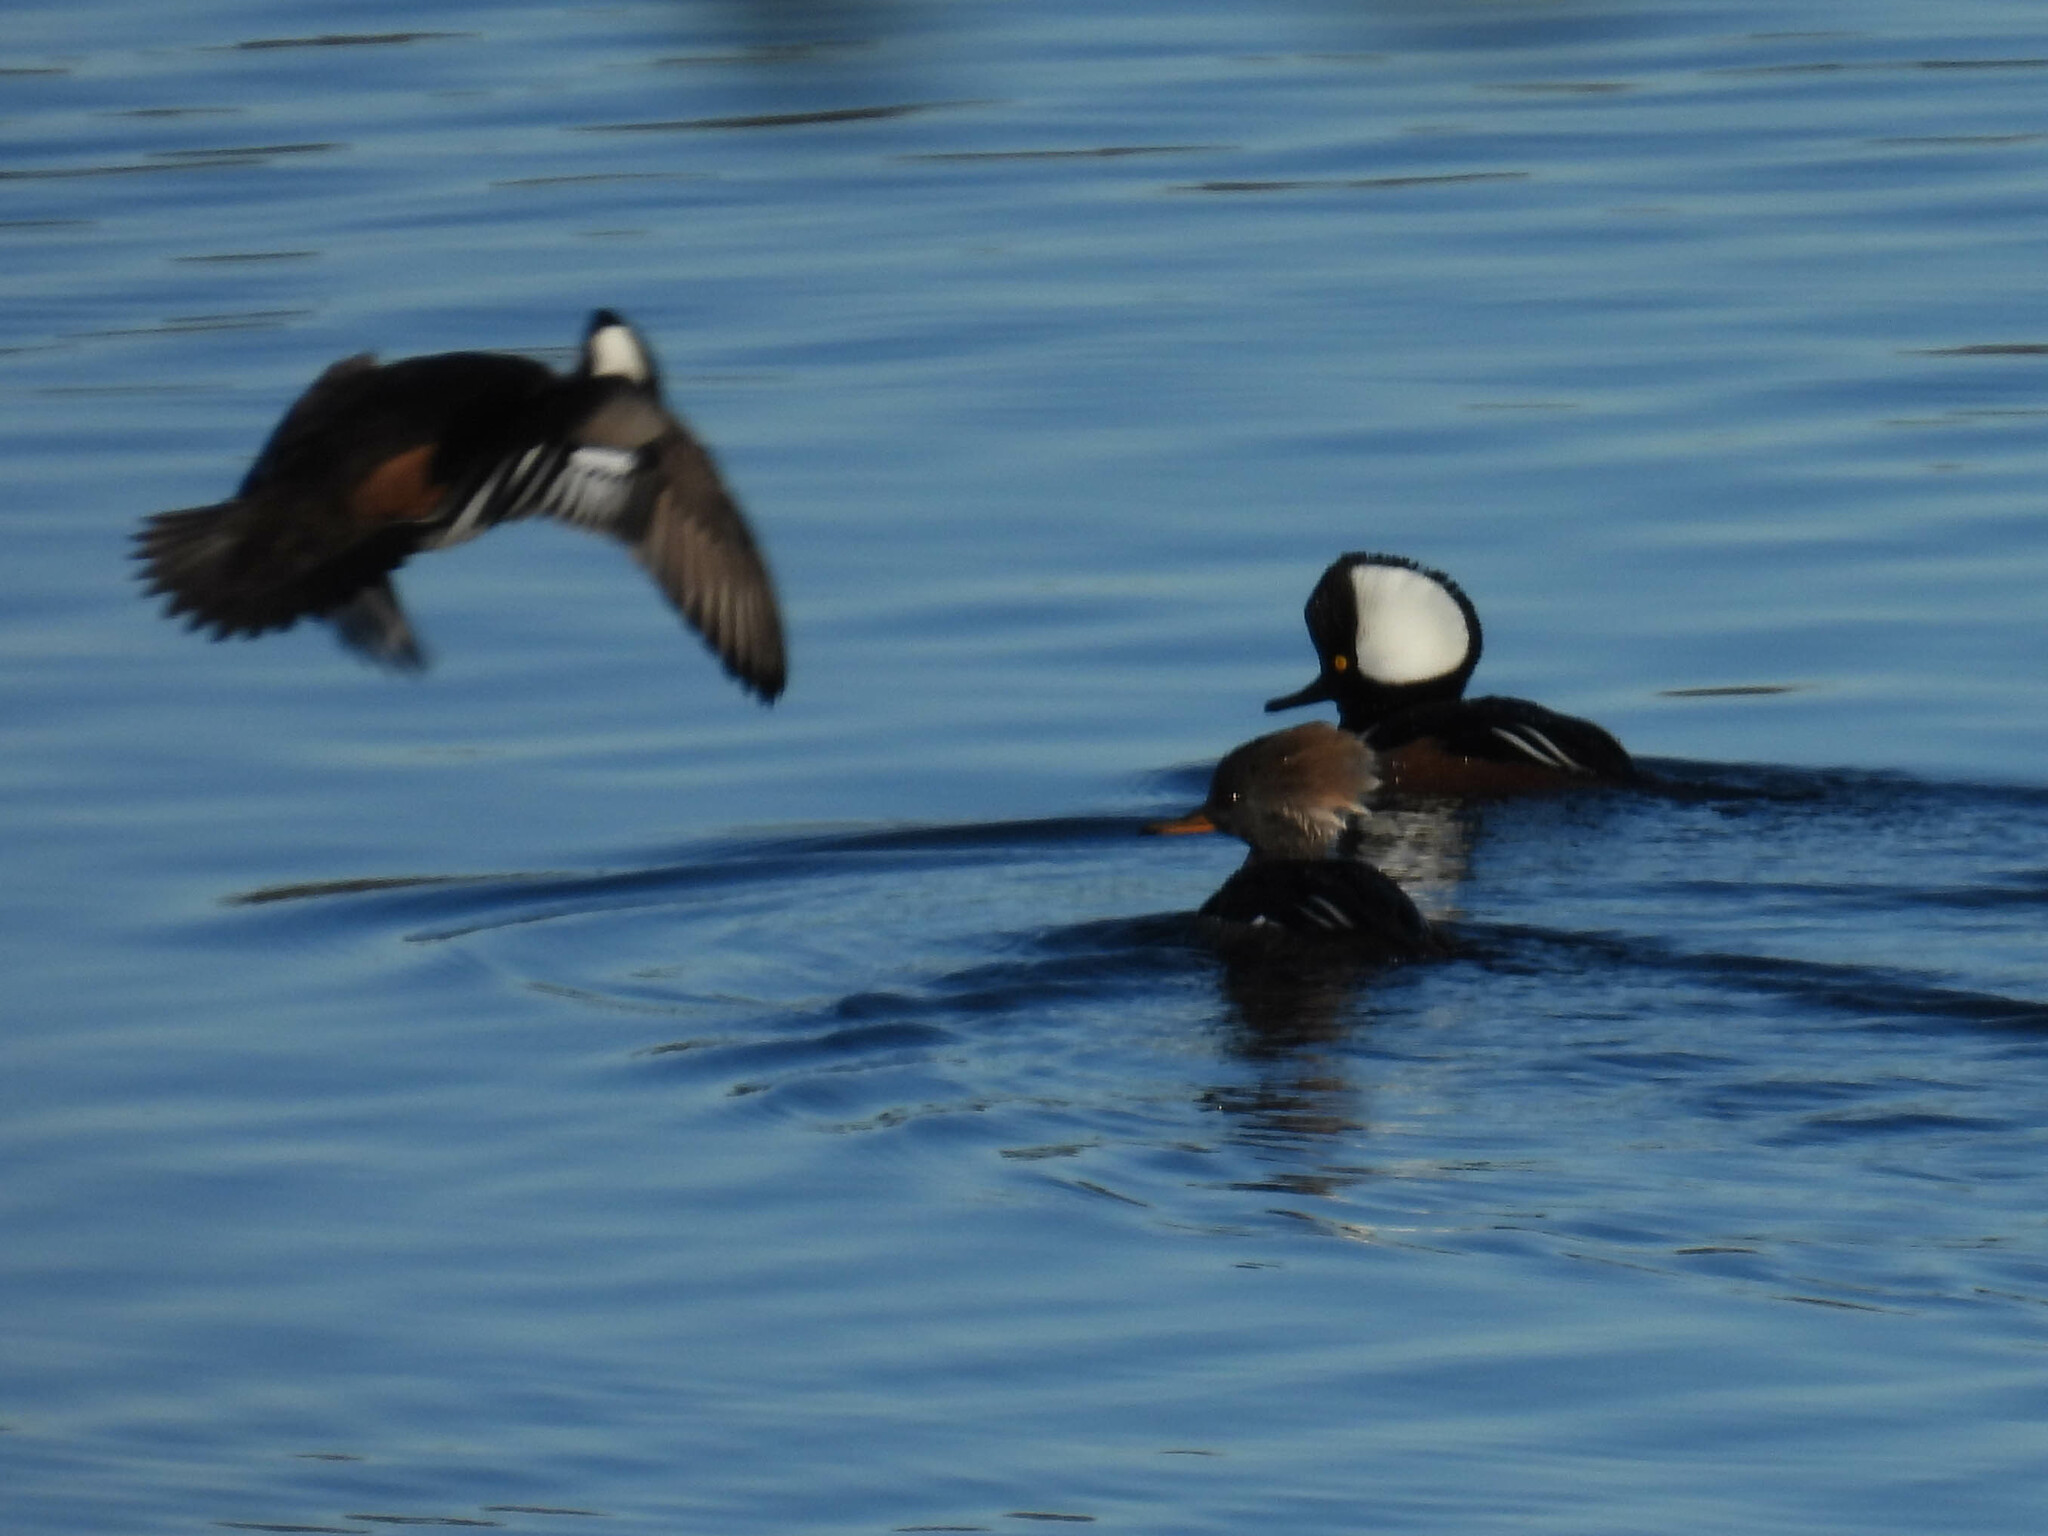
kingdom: Animalia
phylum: Chordata
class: Aves
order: Anseriformes
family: Anatidae
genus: Lophodytes
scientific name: Lophodytes cucullatus
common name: Hooded merganser
